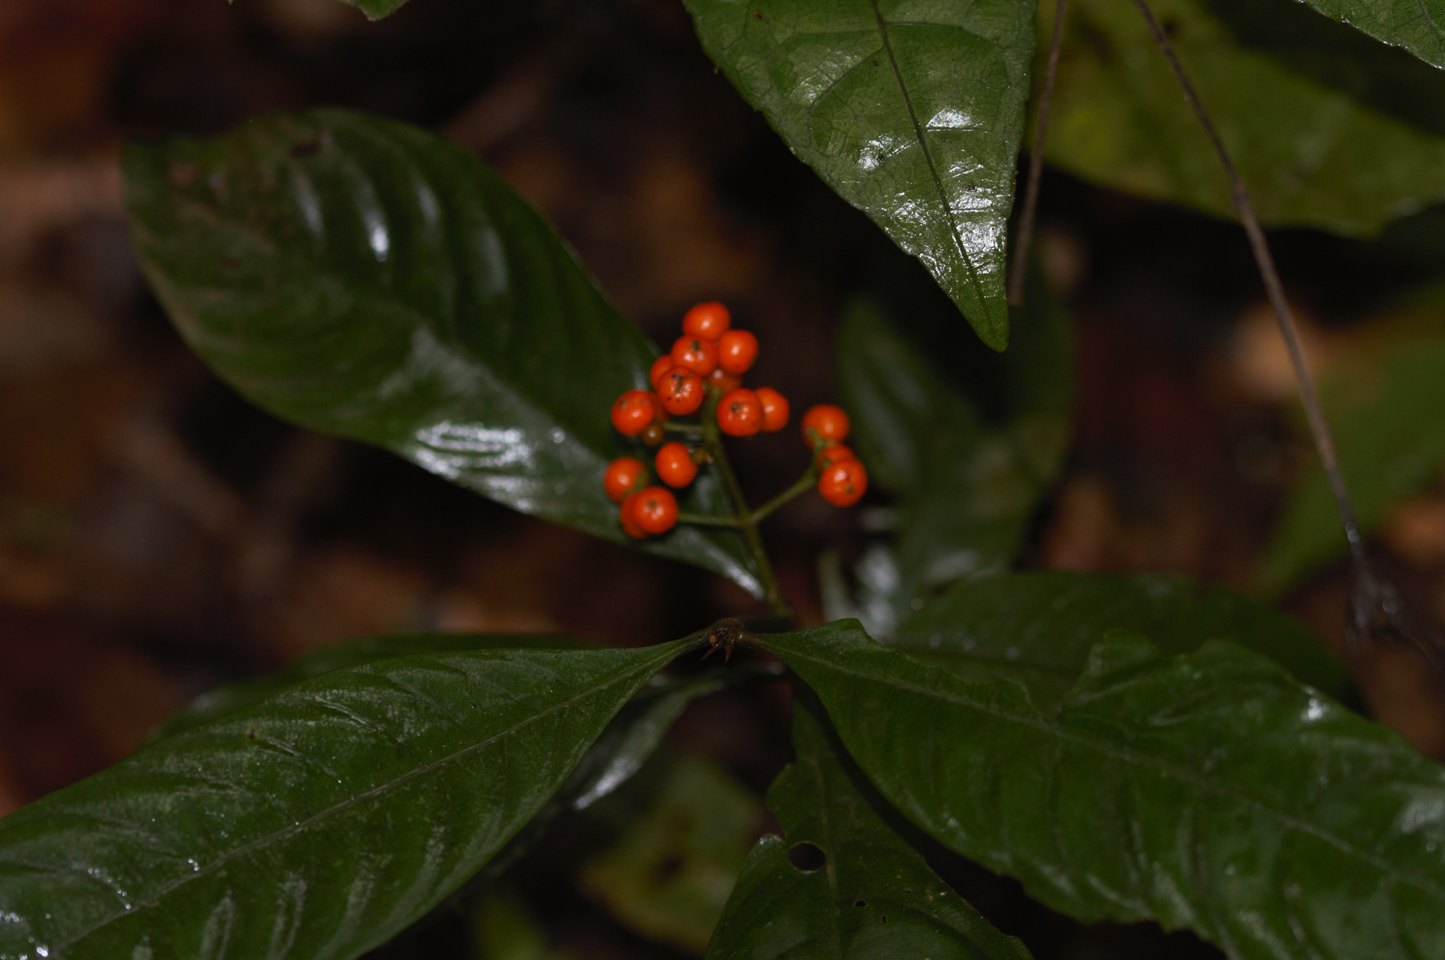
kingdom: Plantae
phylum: Tracheophyta
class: Magnoliopsida
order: Gentianales
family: Rubiaceae
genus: Palicourea
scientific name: Palicourea racemosa
